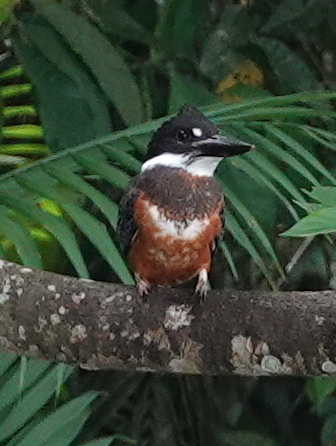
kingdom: Animalia
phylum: Chordata
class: Aves
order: Coraciiformes
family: Alcedinidae
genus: Megaceryle
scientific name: Megaceryle torquata
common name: Ringed kingfisher
